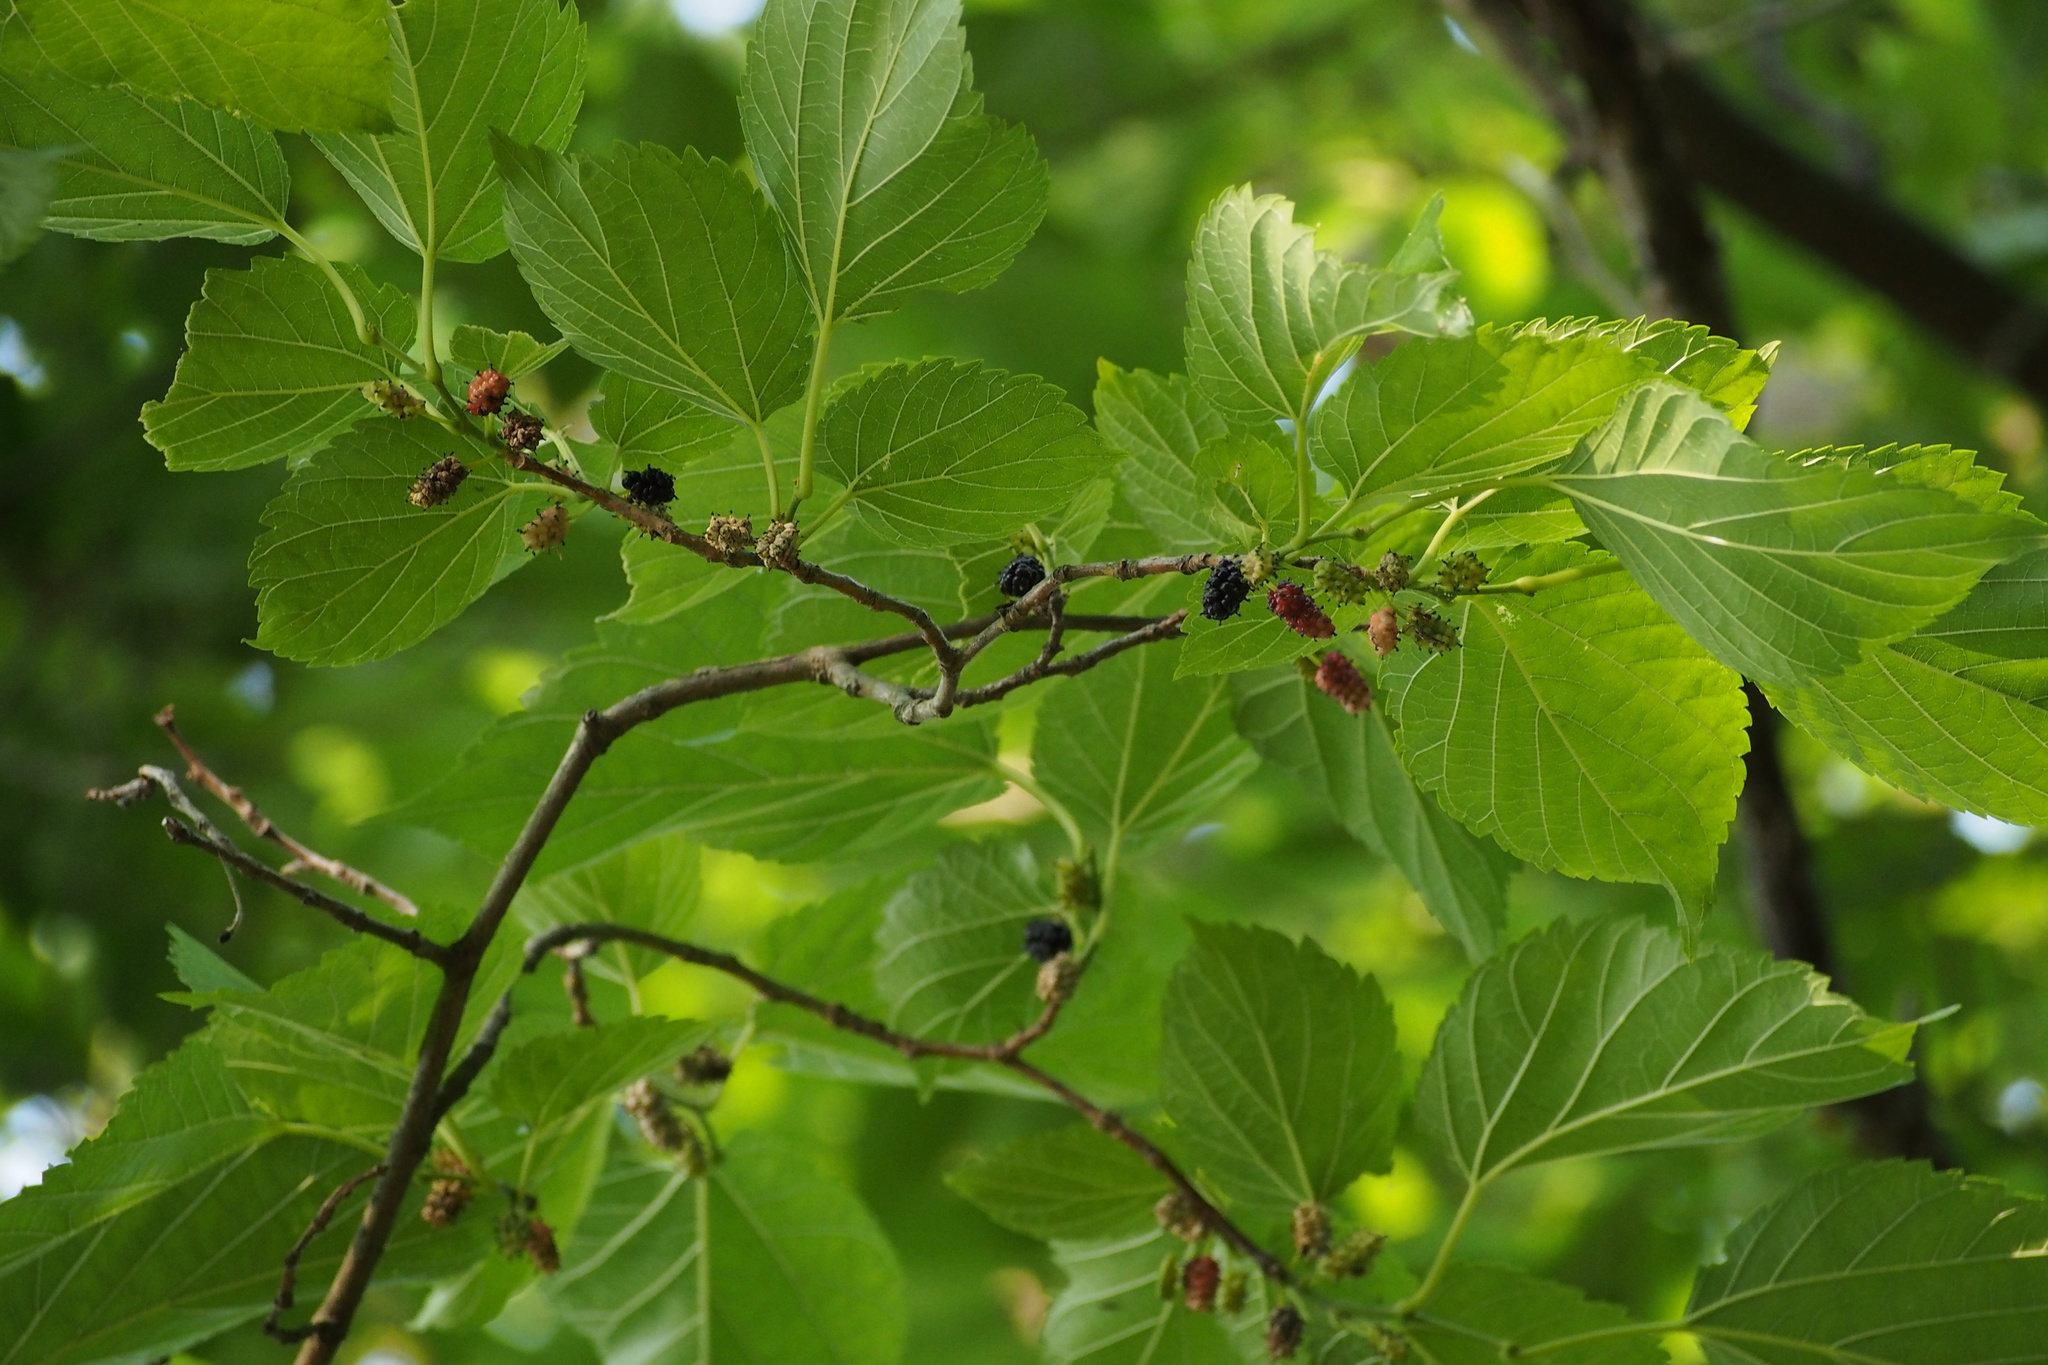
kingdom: Plantae
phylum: Tracheophyta
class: Magnoliopsida
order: Rosales
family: Moraceae
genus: Morus
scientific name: Morus indica
